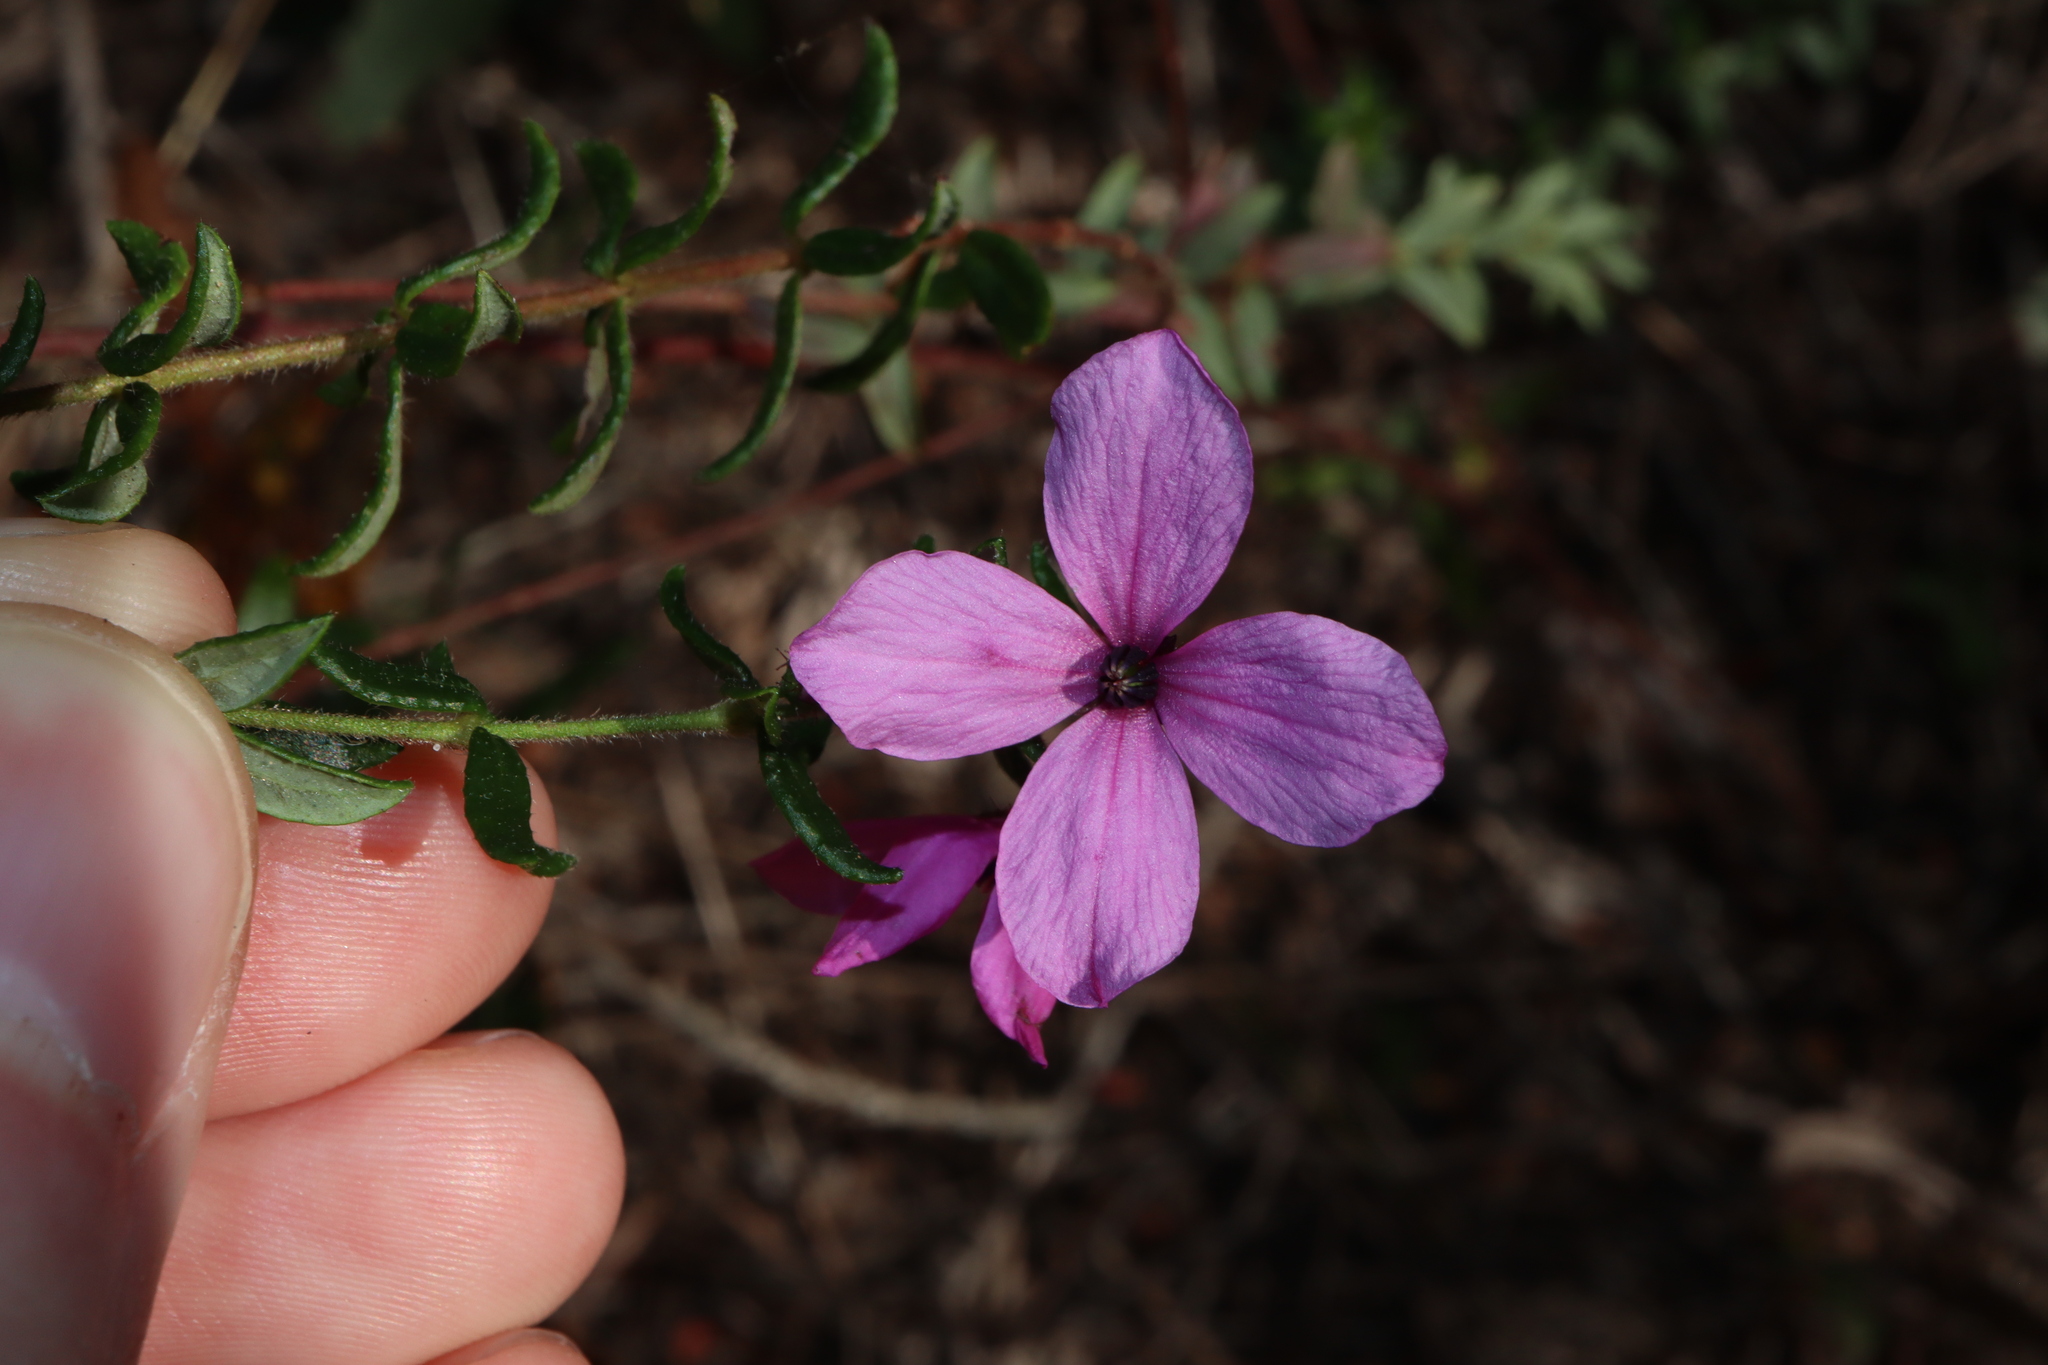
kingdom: Plantae
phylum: Tracheophyta
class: Magnoliopsida
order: Oxalidales
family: Elaeocarpaceae
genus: Tetratheca
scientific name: Tetratheca thymifolia
